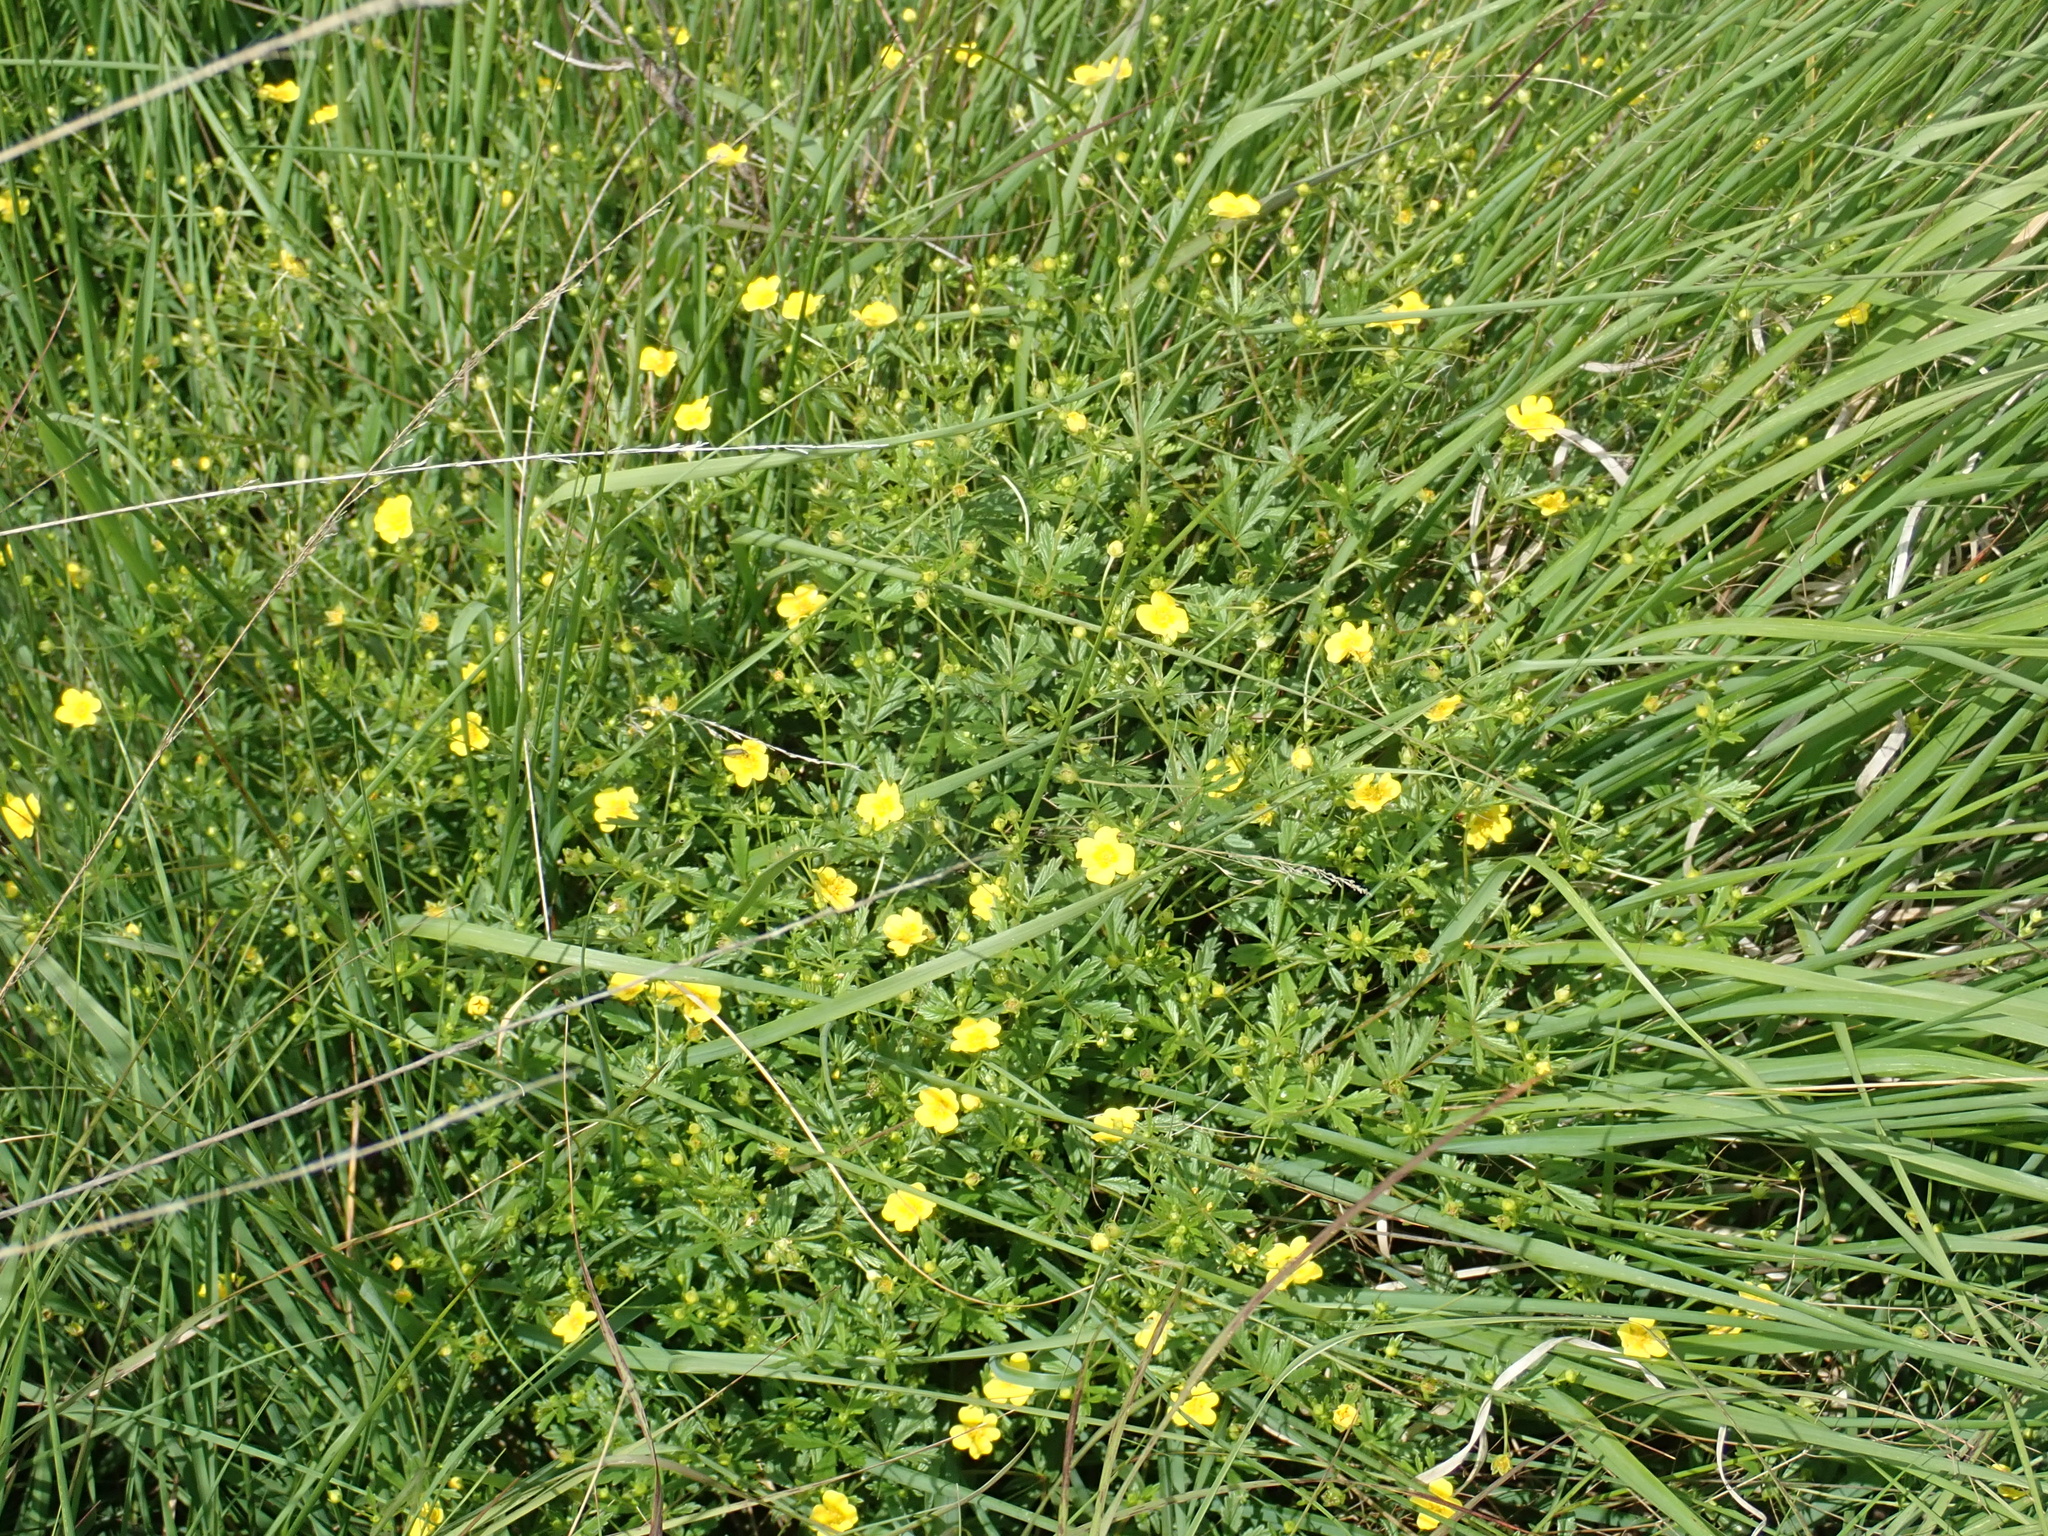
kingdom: Plantae
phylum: Tracheophyta
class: Magnoliopsida
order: Rosales
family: Rosaceae
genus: Potentilla
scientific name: Potentilla erecta
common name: Tormentil
